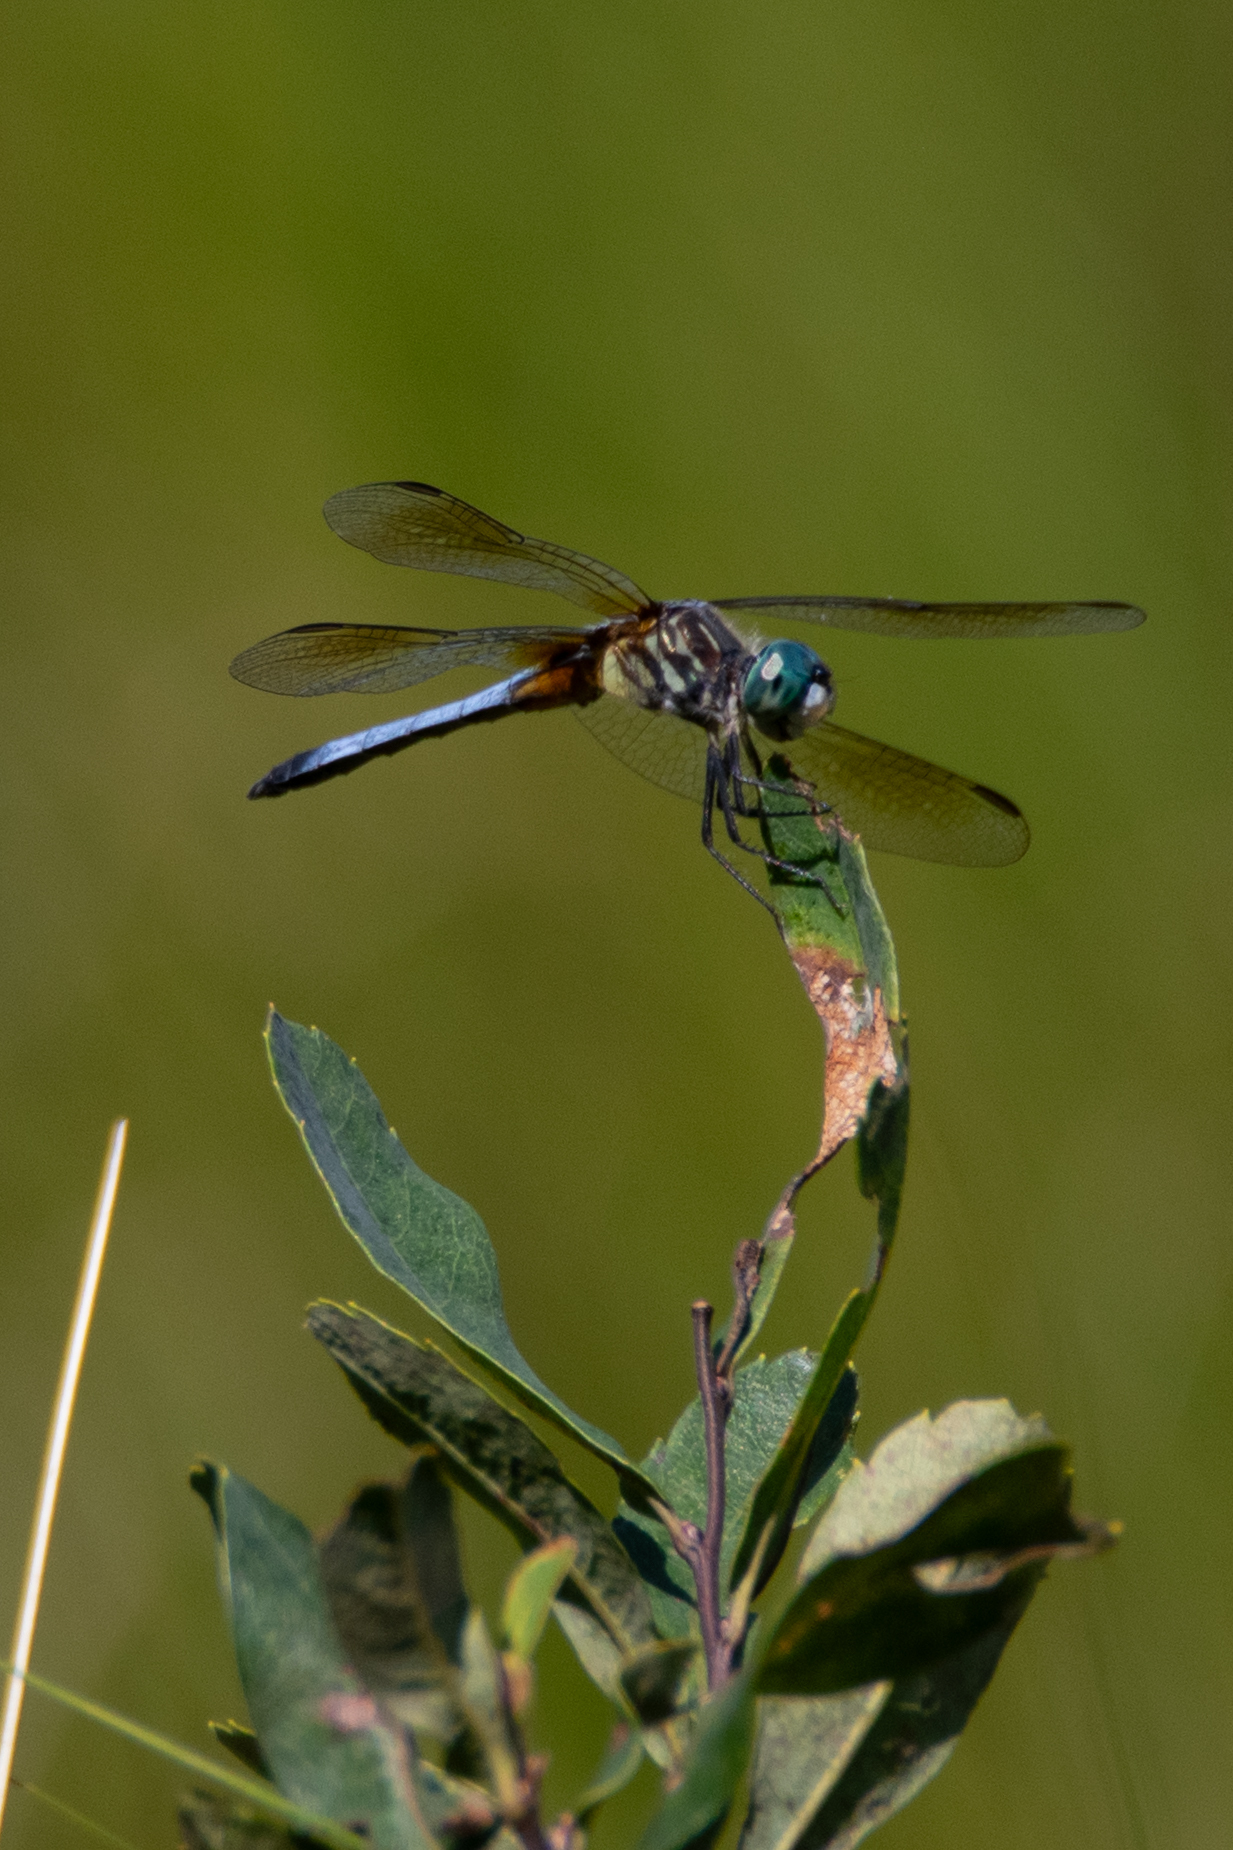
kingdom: Animalia
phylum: Arthropoda
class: Insecta
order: Odonata
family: Libellulidae
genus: Pachydiplax
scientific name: Pachydiplax longipennis
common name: Blue dasher
